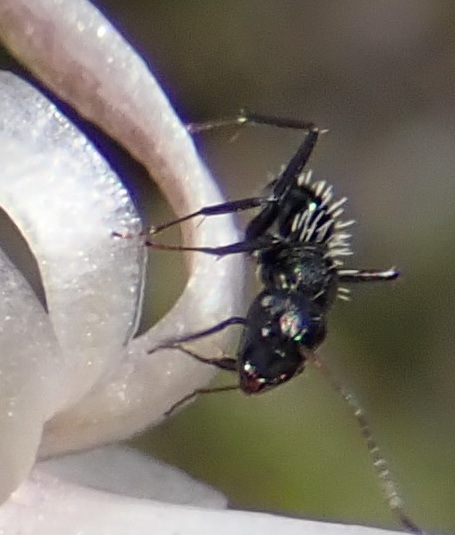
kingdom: Animalia
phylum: Arthropoda
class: Insecta
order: Hymenoptera
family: Formicidae
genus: Camponotus
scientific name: Camponotus niveosetosus
